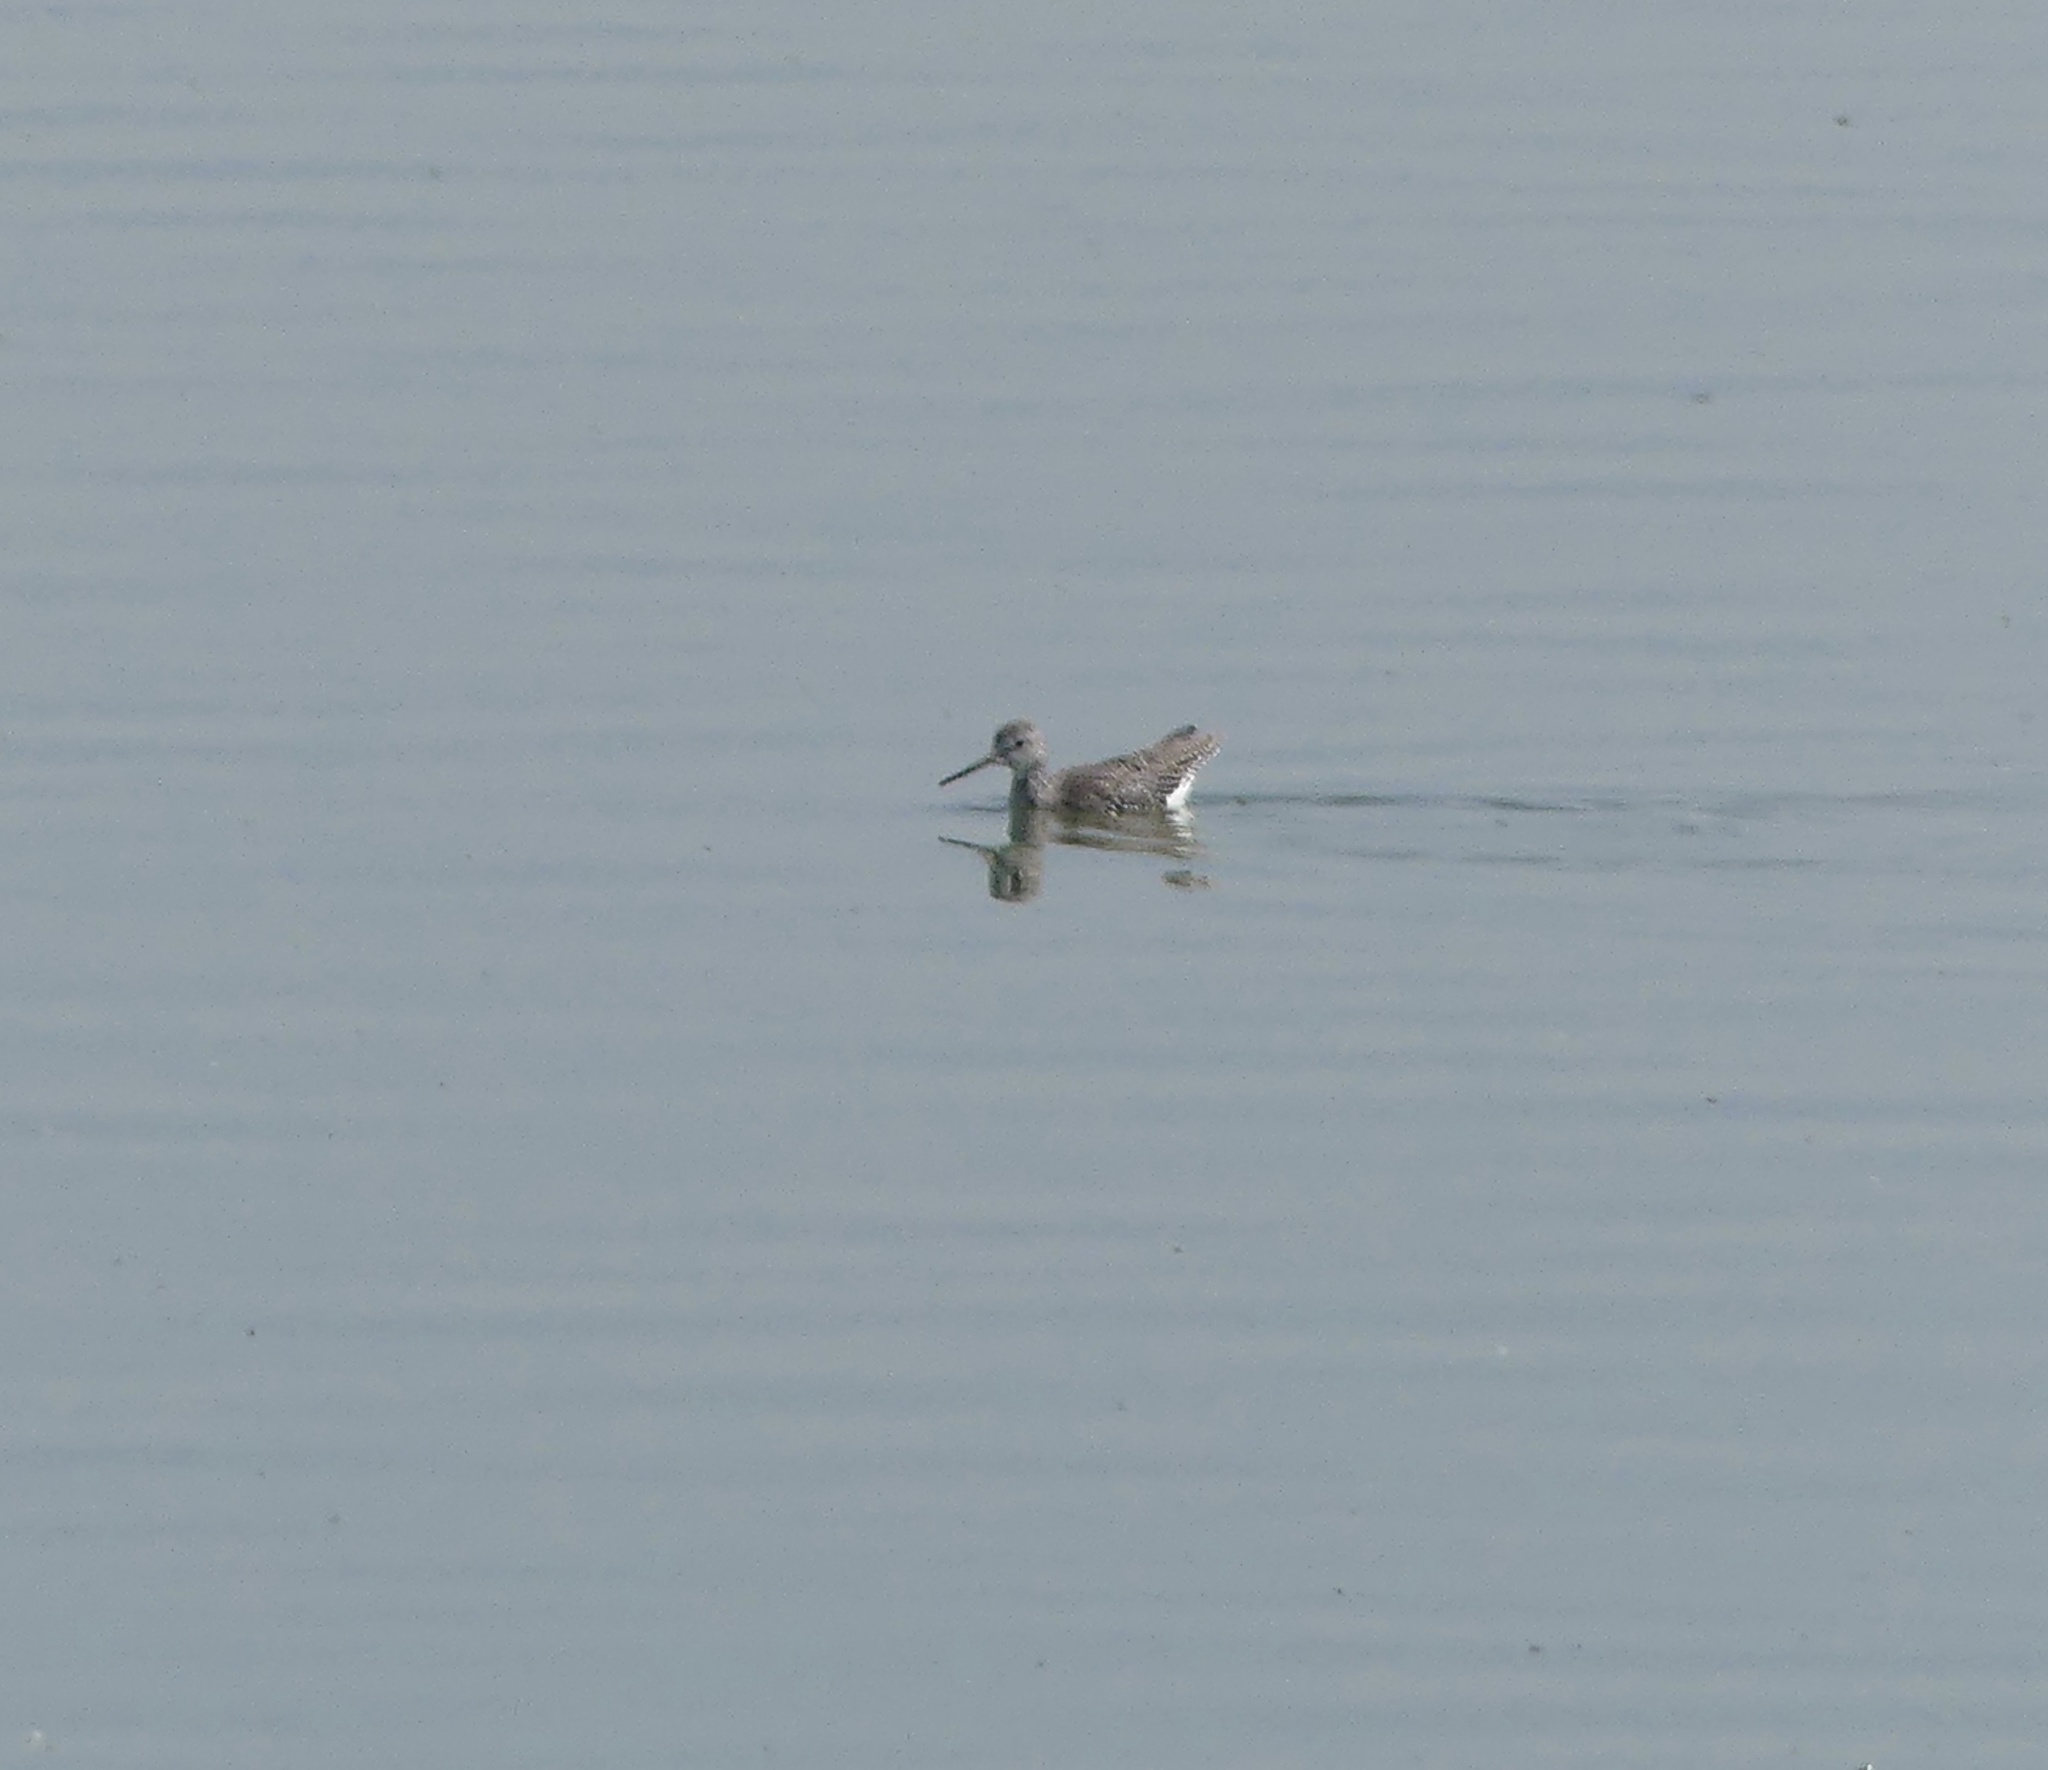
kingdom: Animalia
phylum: Chordata
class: Aves
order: Charadriiformes
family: Scolopacidae
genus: Tringa
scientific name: Tringa melanoleuca
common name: Greater yellowlegs
